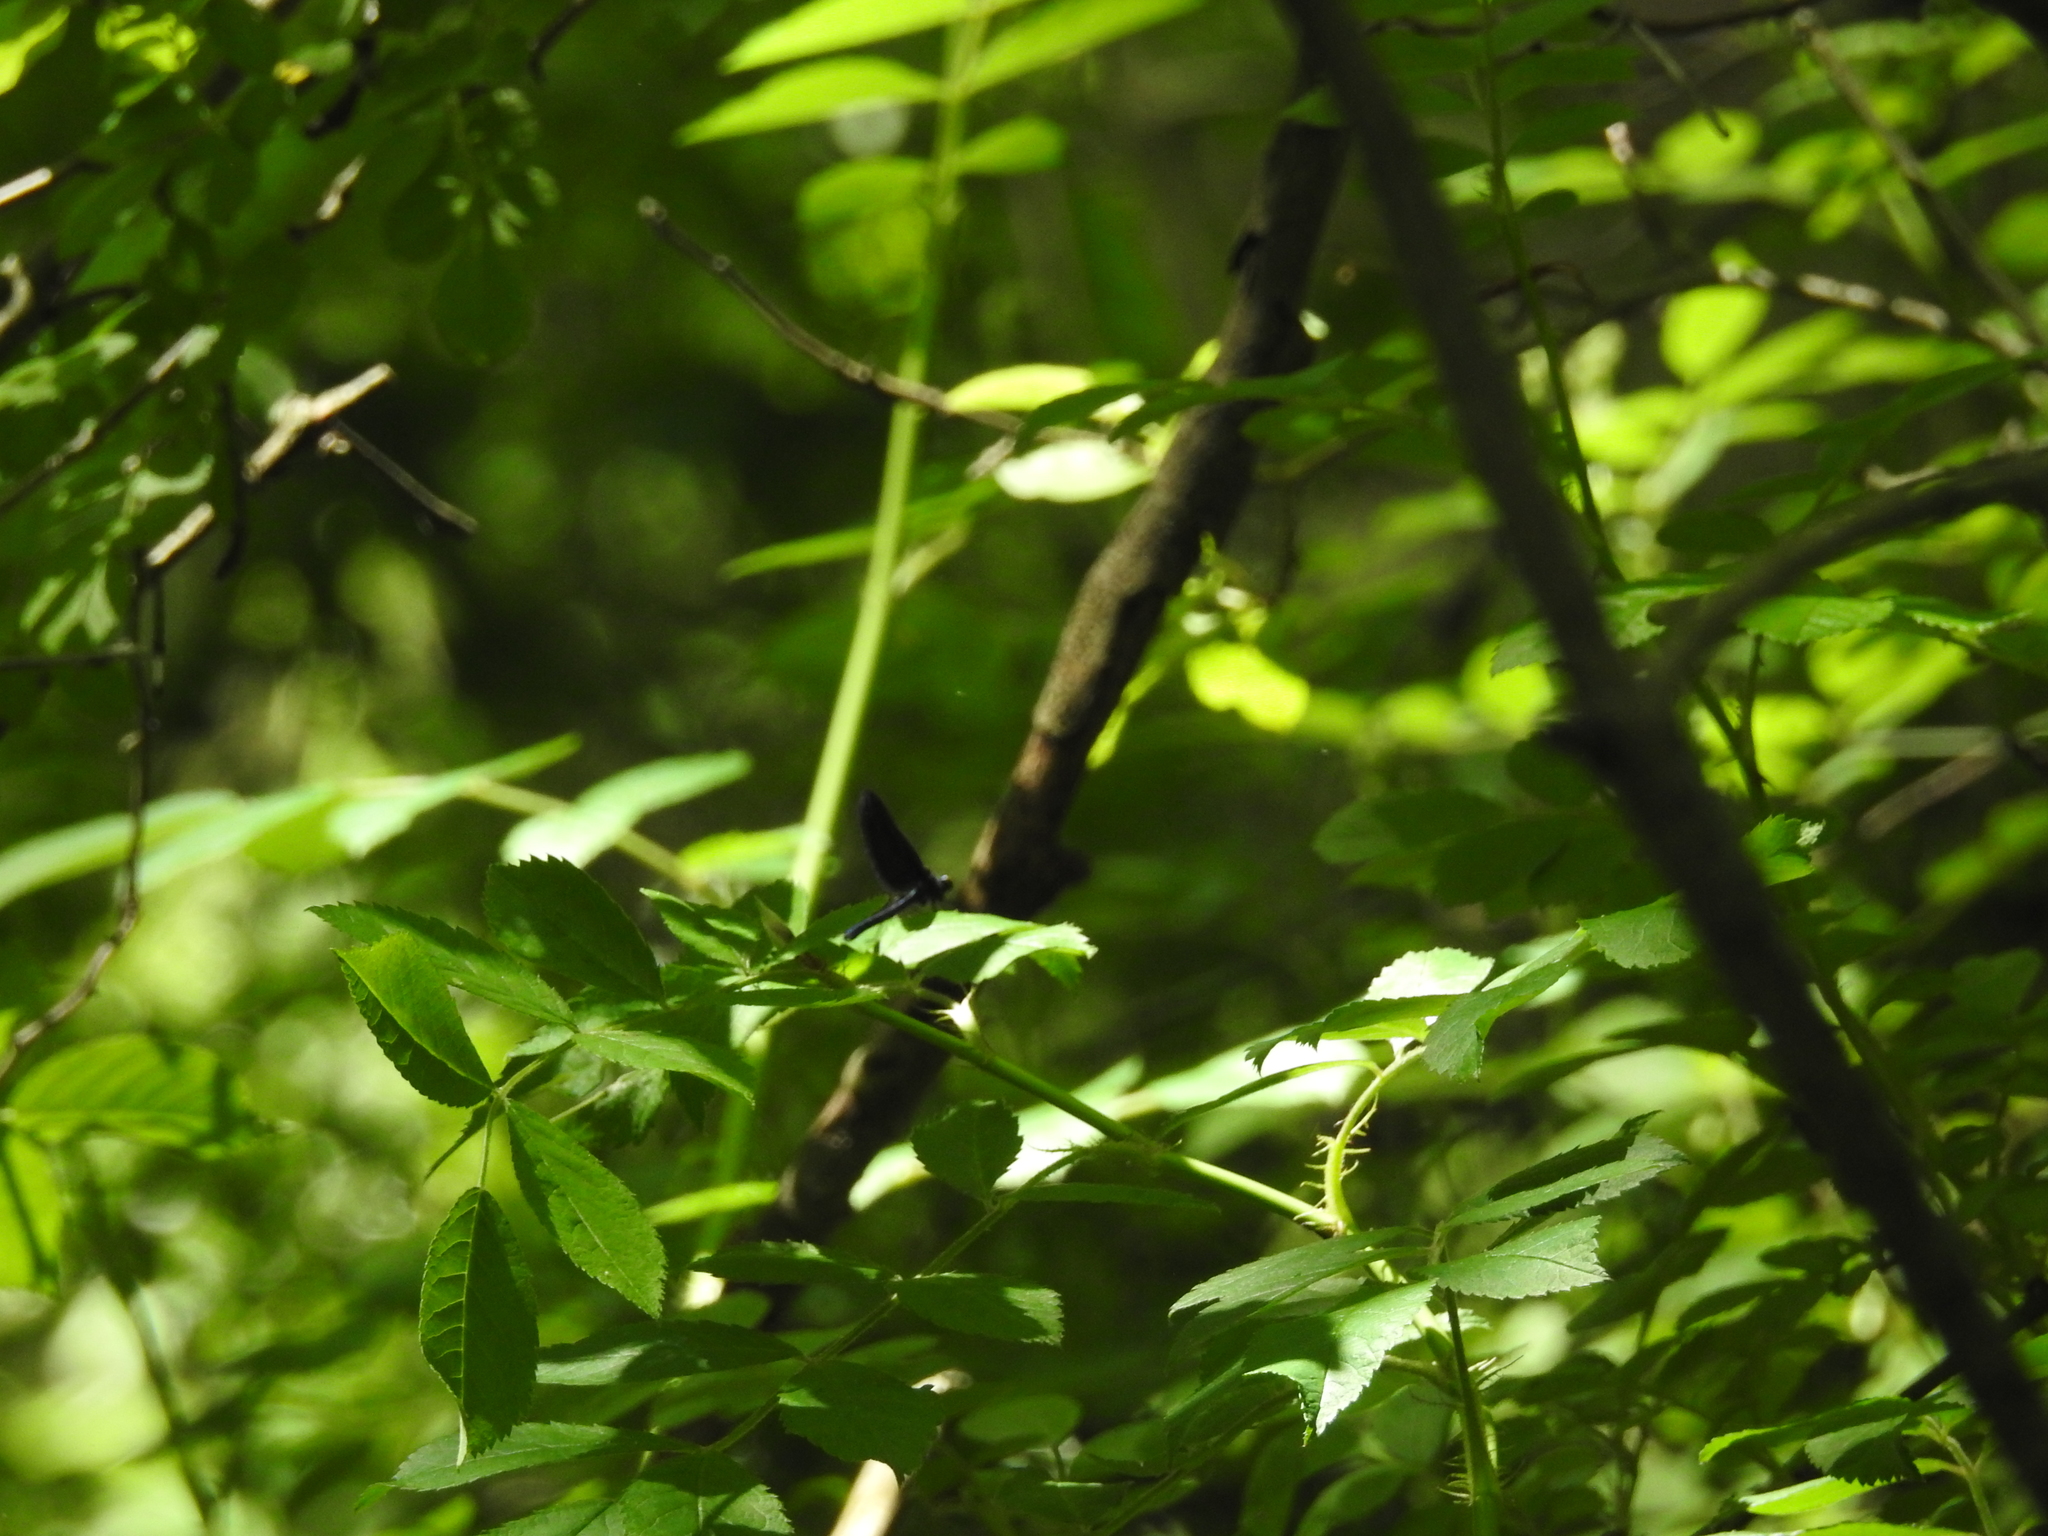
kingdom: Animalia
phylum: Arthropoda
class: Insecta
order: Odonata
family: Calopterygidae
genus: Calopteryx
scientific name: Calopteryx maculata
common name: Ebony jewelwing
